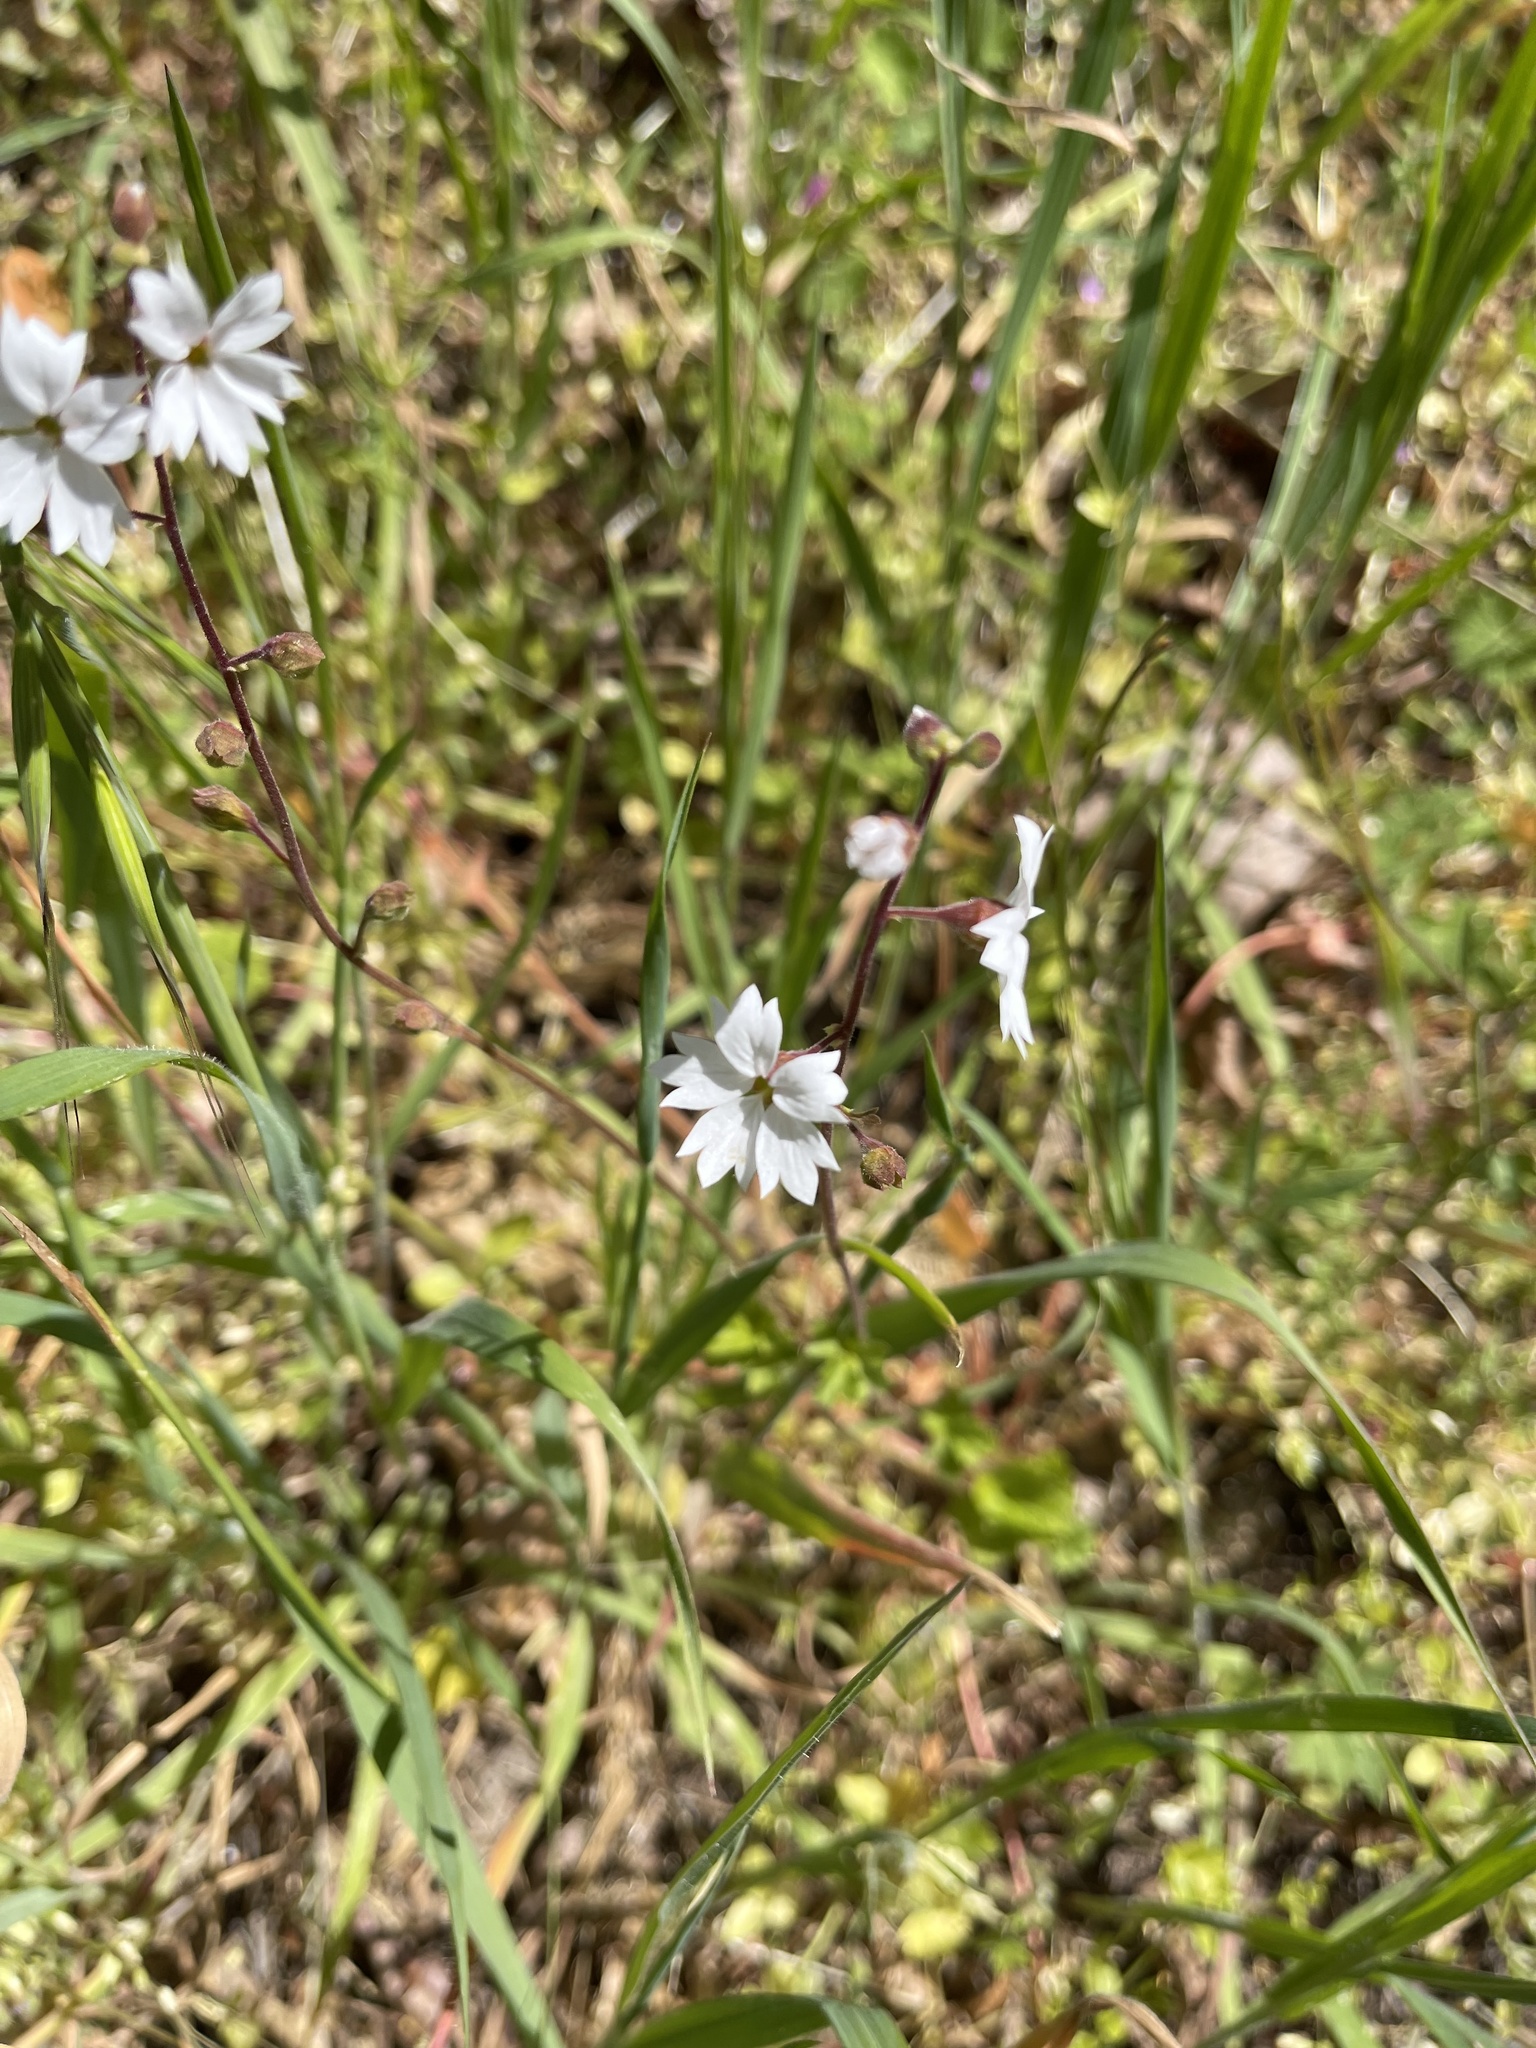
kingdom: Plantae
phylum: Tracheophyta
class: Magnoliopsida
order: Saxifragales
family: Saxifragaceae
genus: Lithophragma
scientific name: Lithophragma affine
